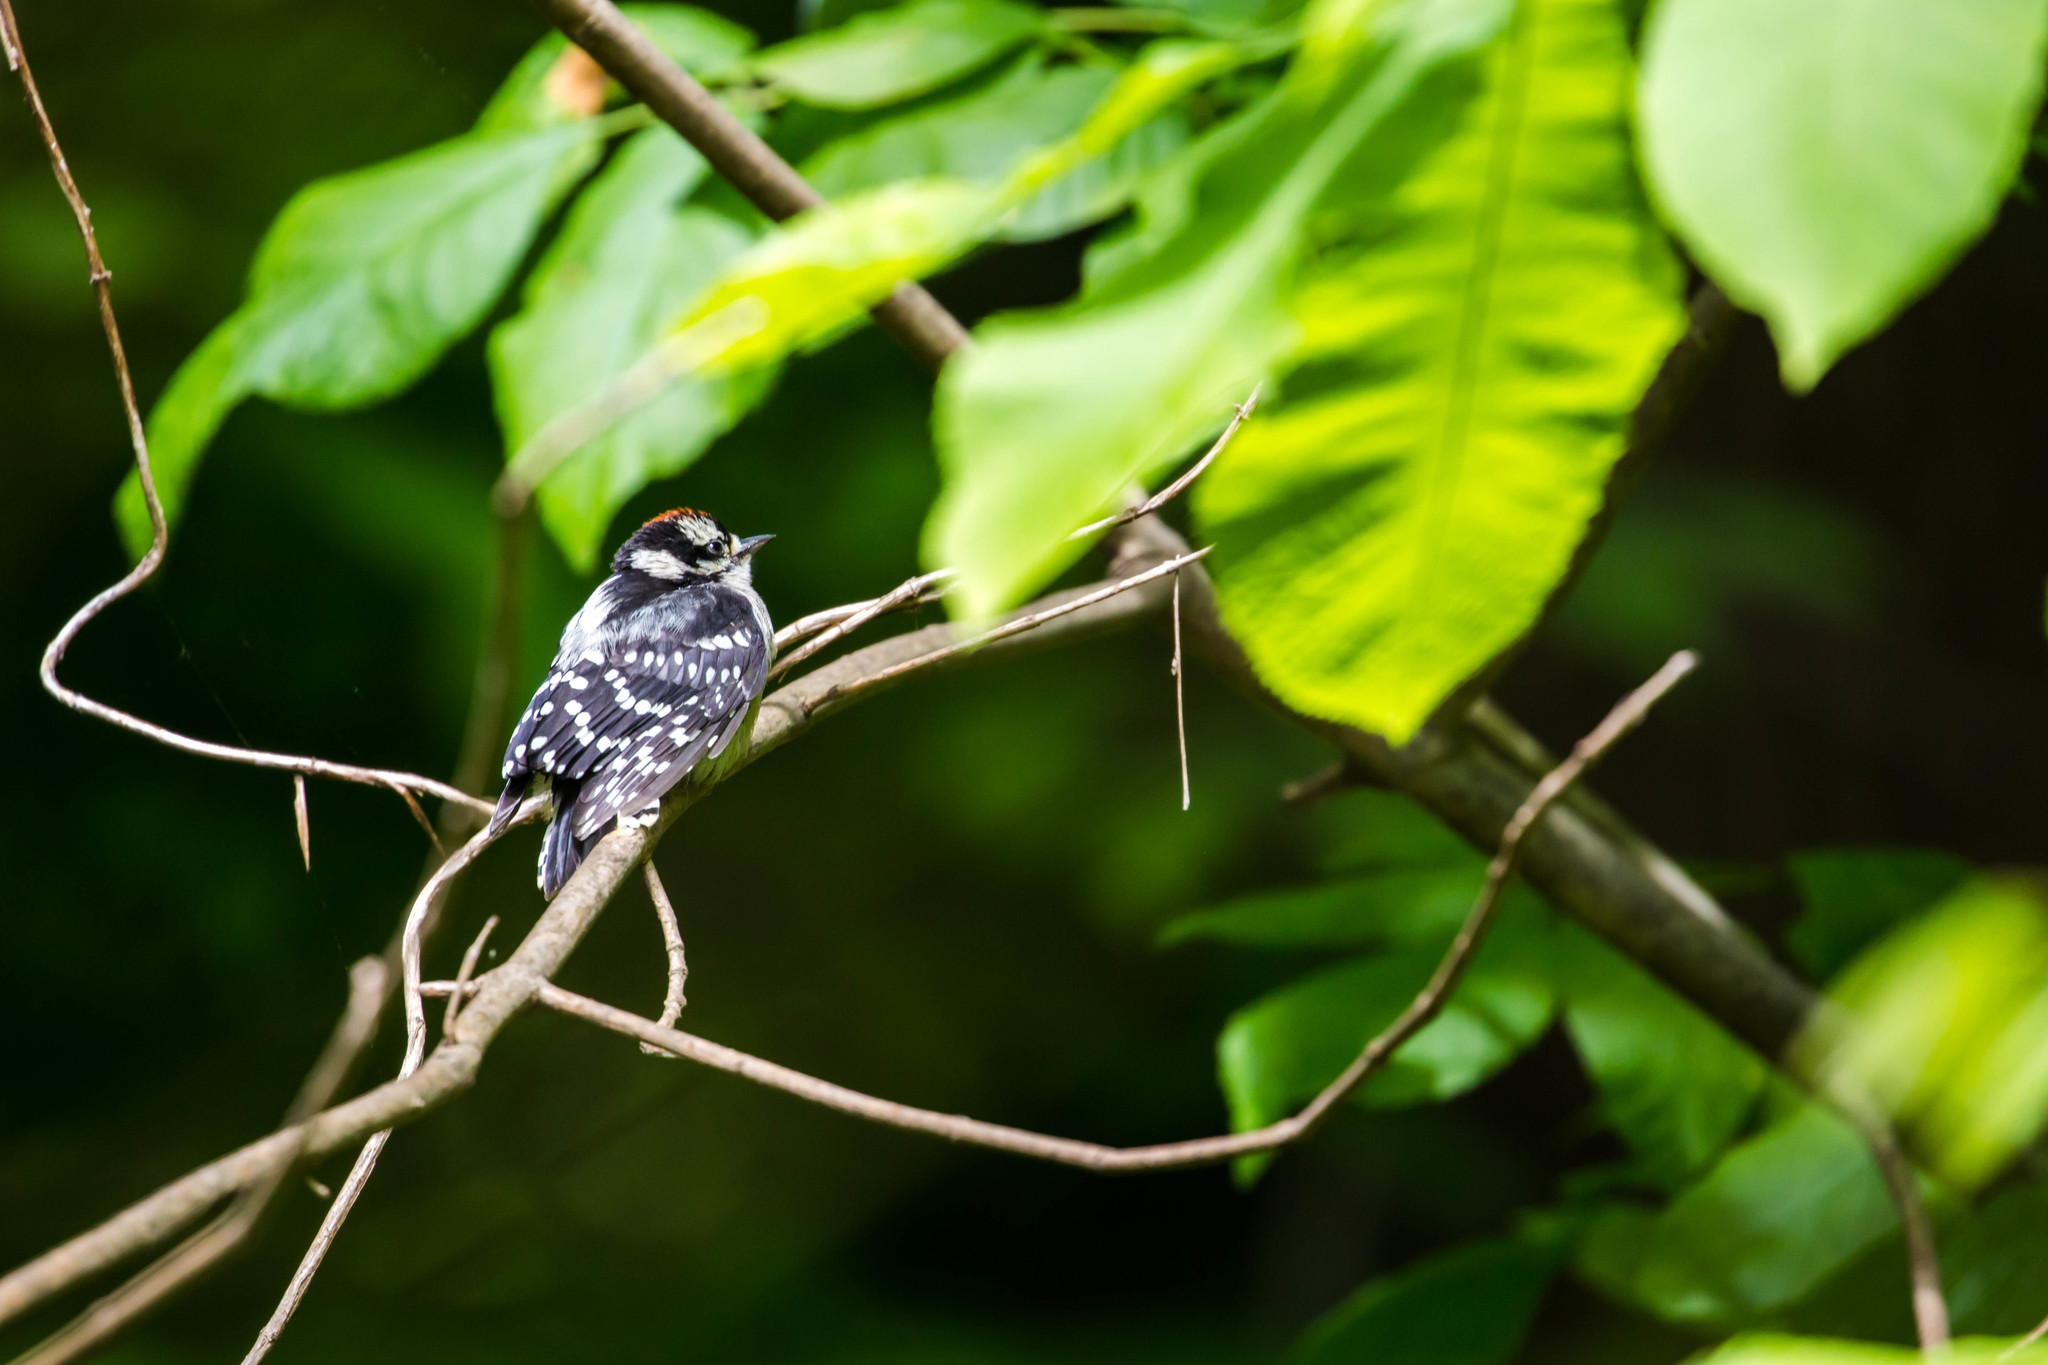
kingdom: Animalia
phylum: Chordata
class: Aves
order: Piciformes
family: Picidae
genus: Dryobates
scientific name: Dryobates pubescens
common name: Downy woodpecker
